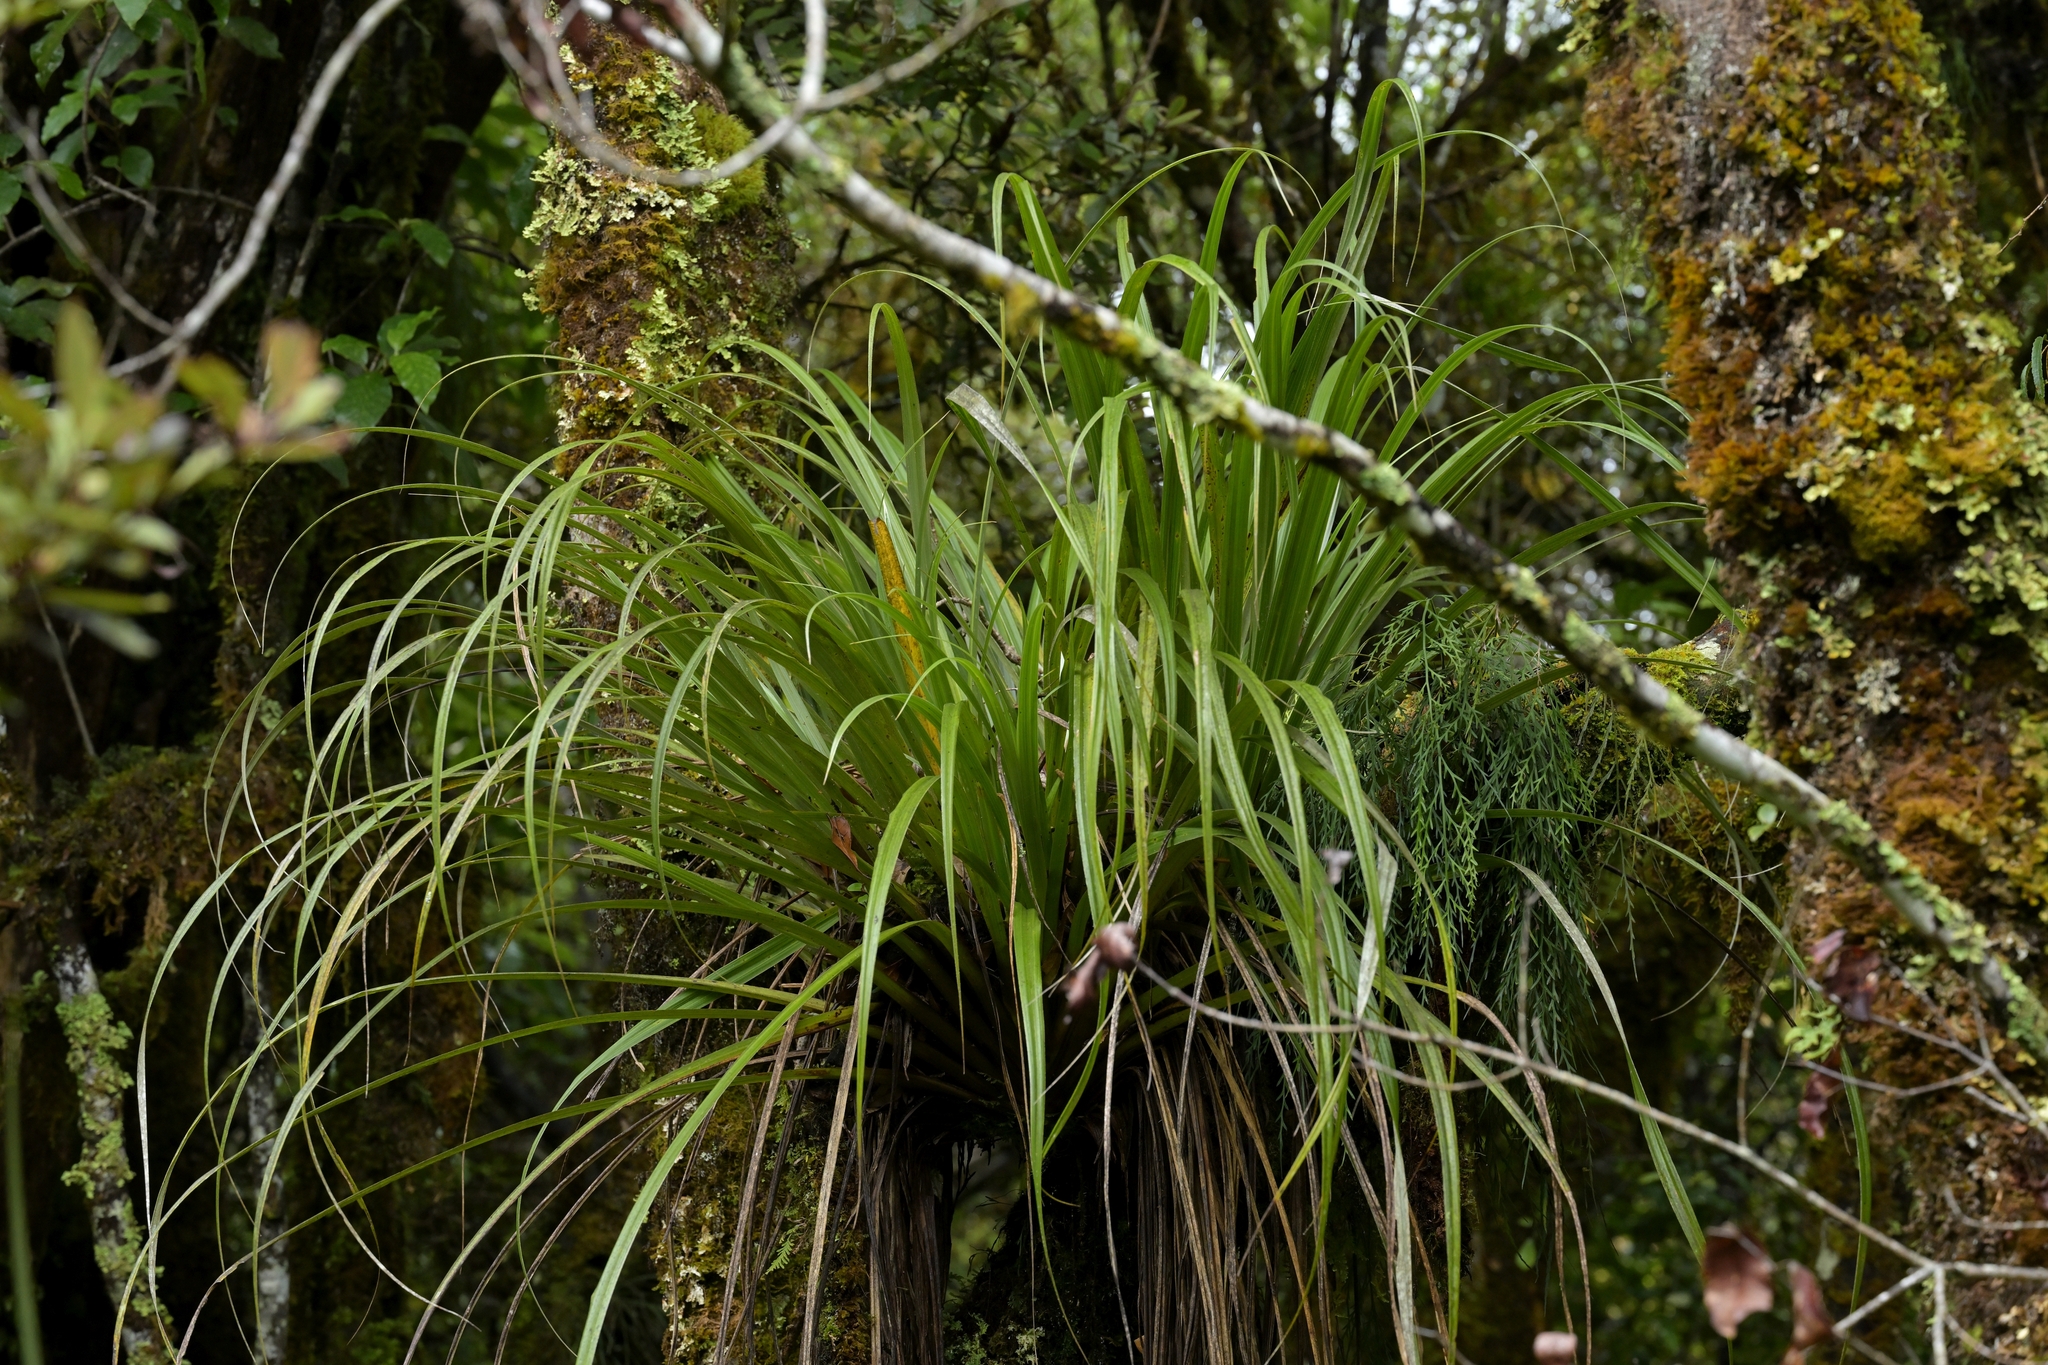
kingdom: Plantae
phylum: Tracheophyta
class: Liliopsida
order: Asparagales
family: Asteliaceae
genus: Astelia
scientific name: Astelia solandri
